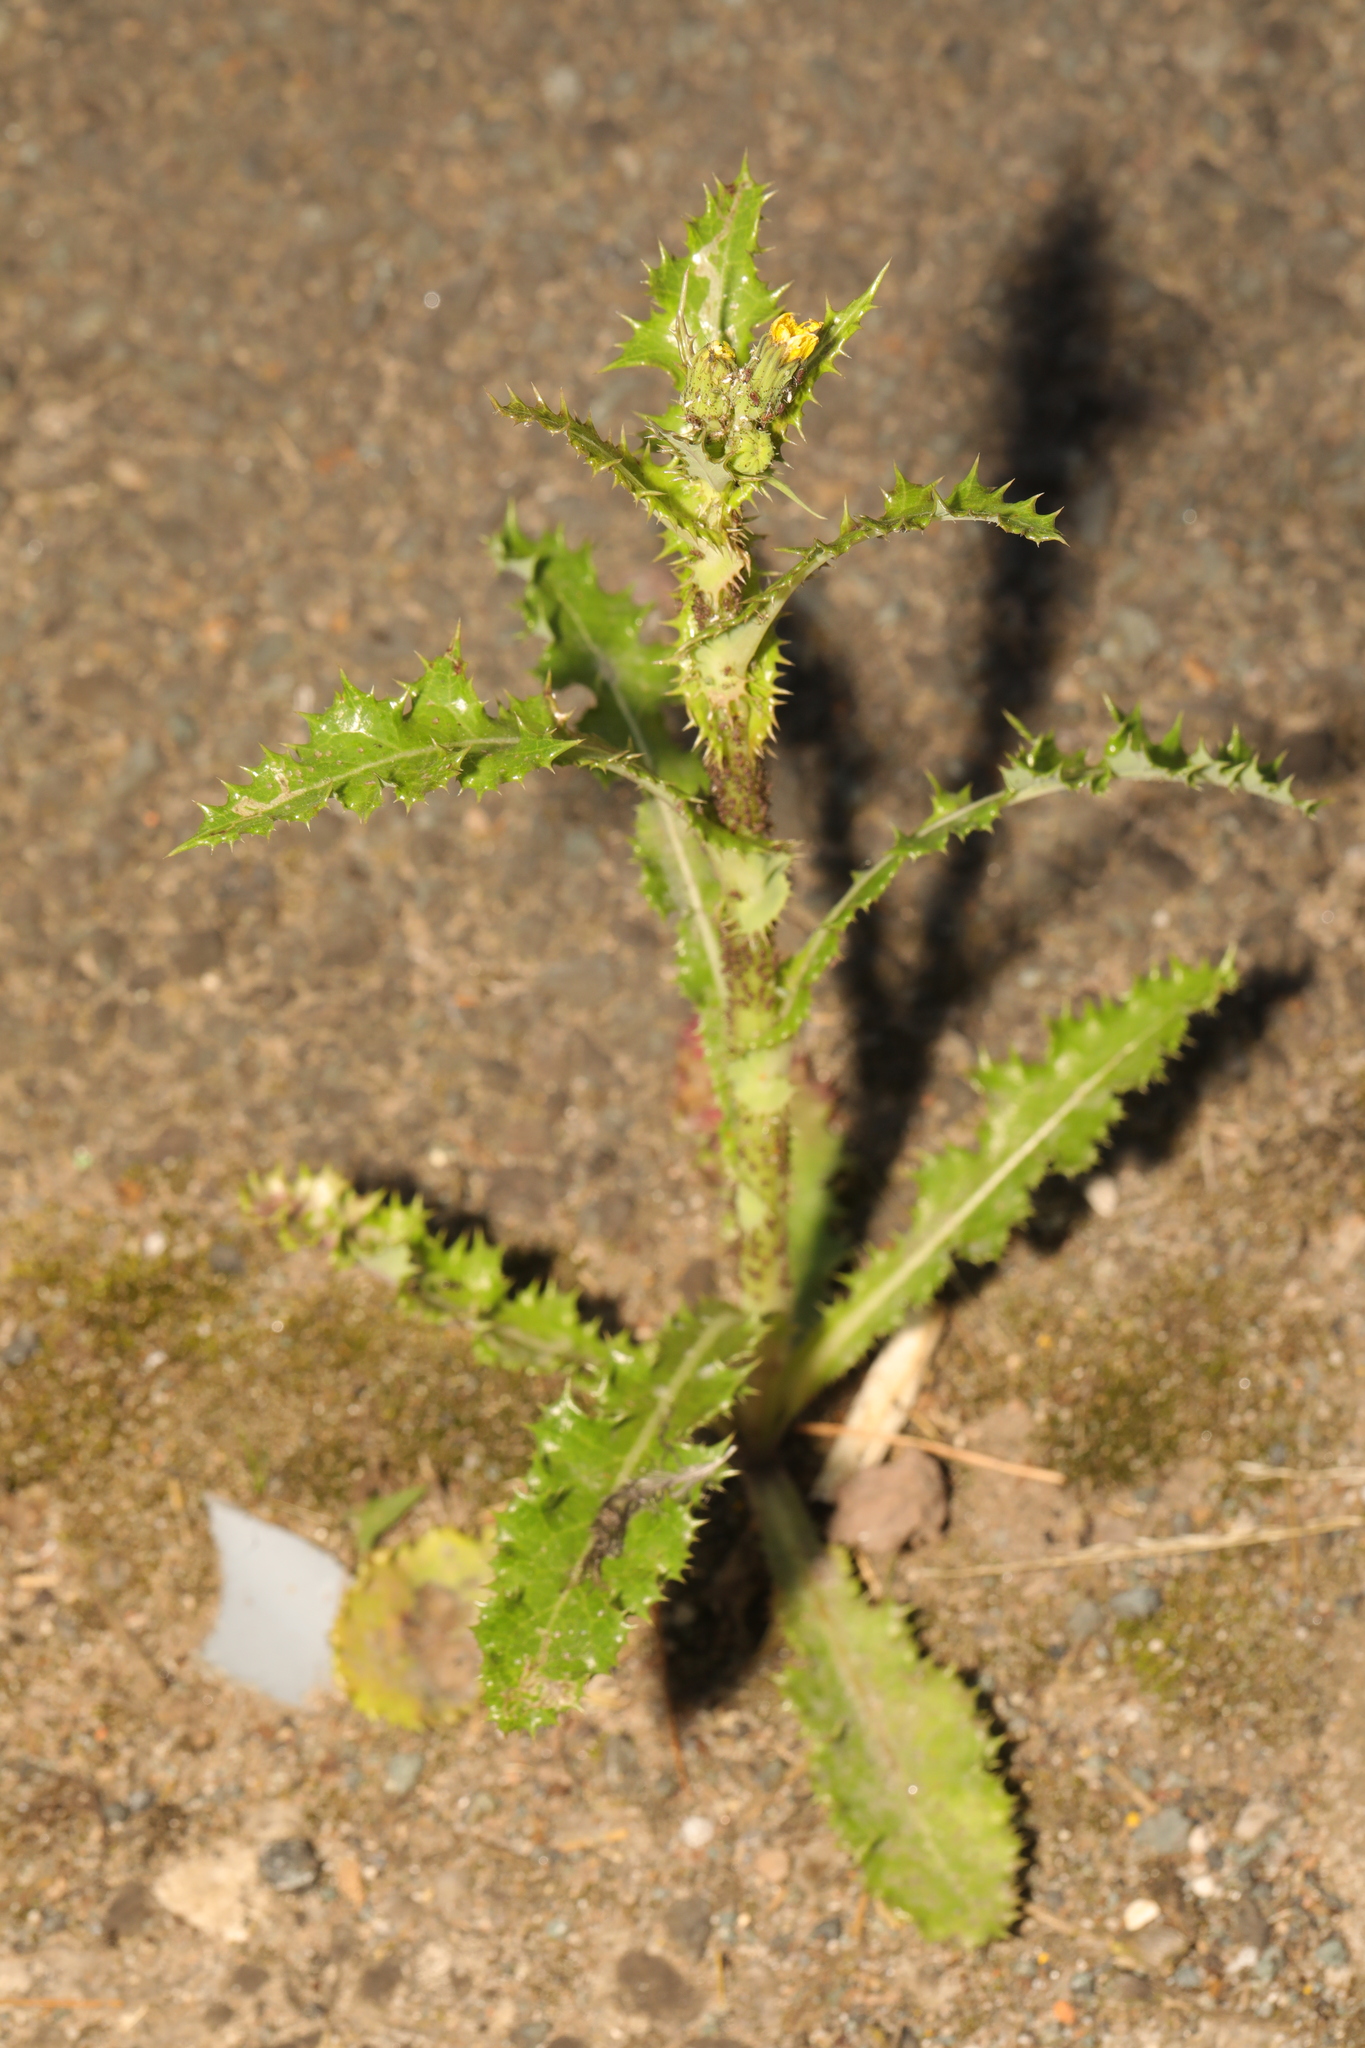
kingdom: Plantae
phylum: Tracheophyta
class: Magnoliopsida
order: Asterales
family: Asteraceae
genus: Sonchus
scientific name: Sonchus asper
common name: Prickly sow-thistle
